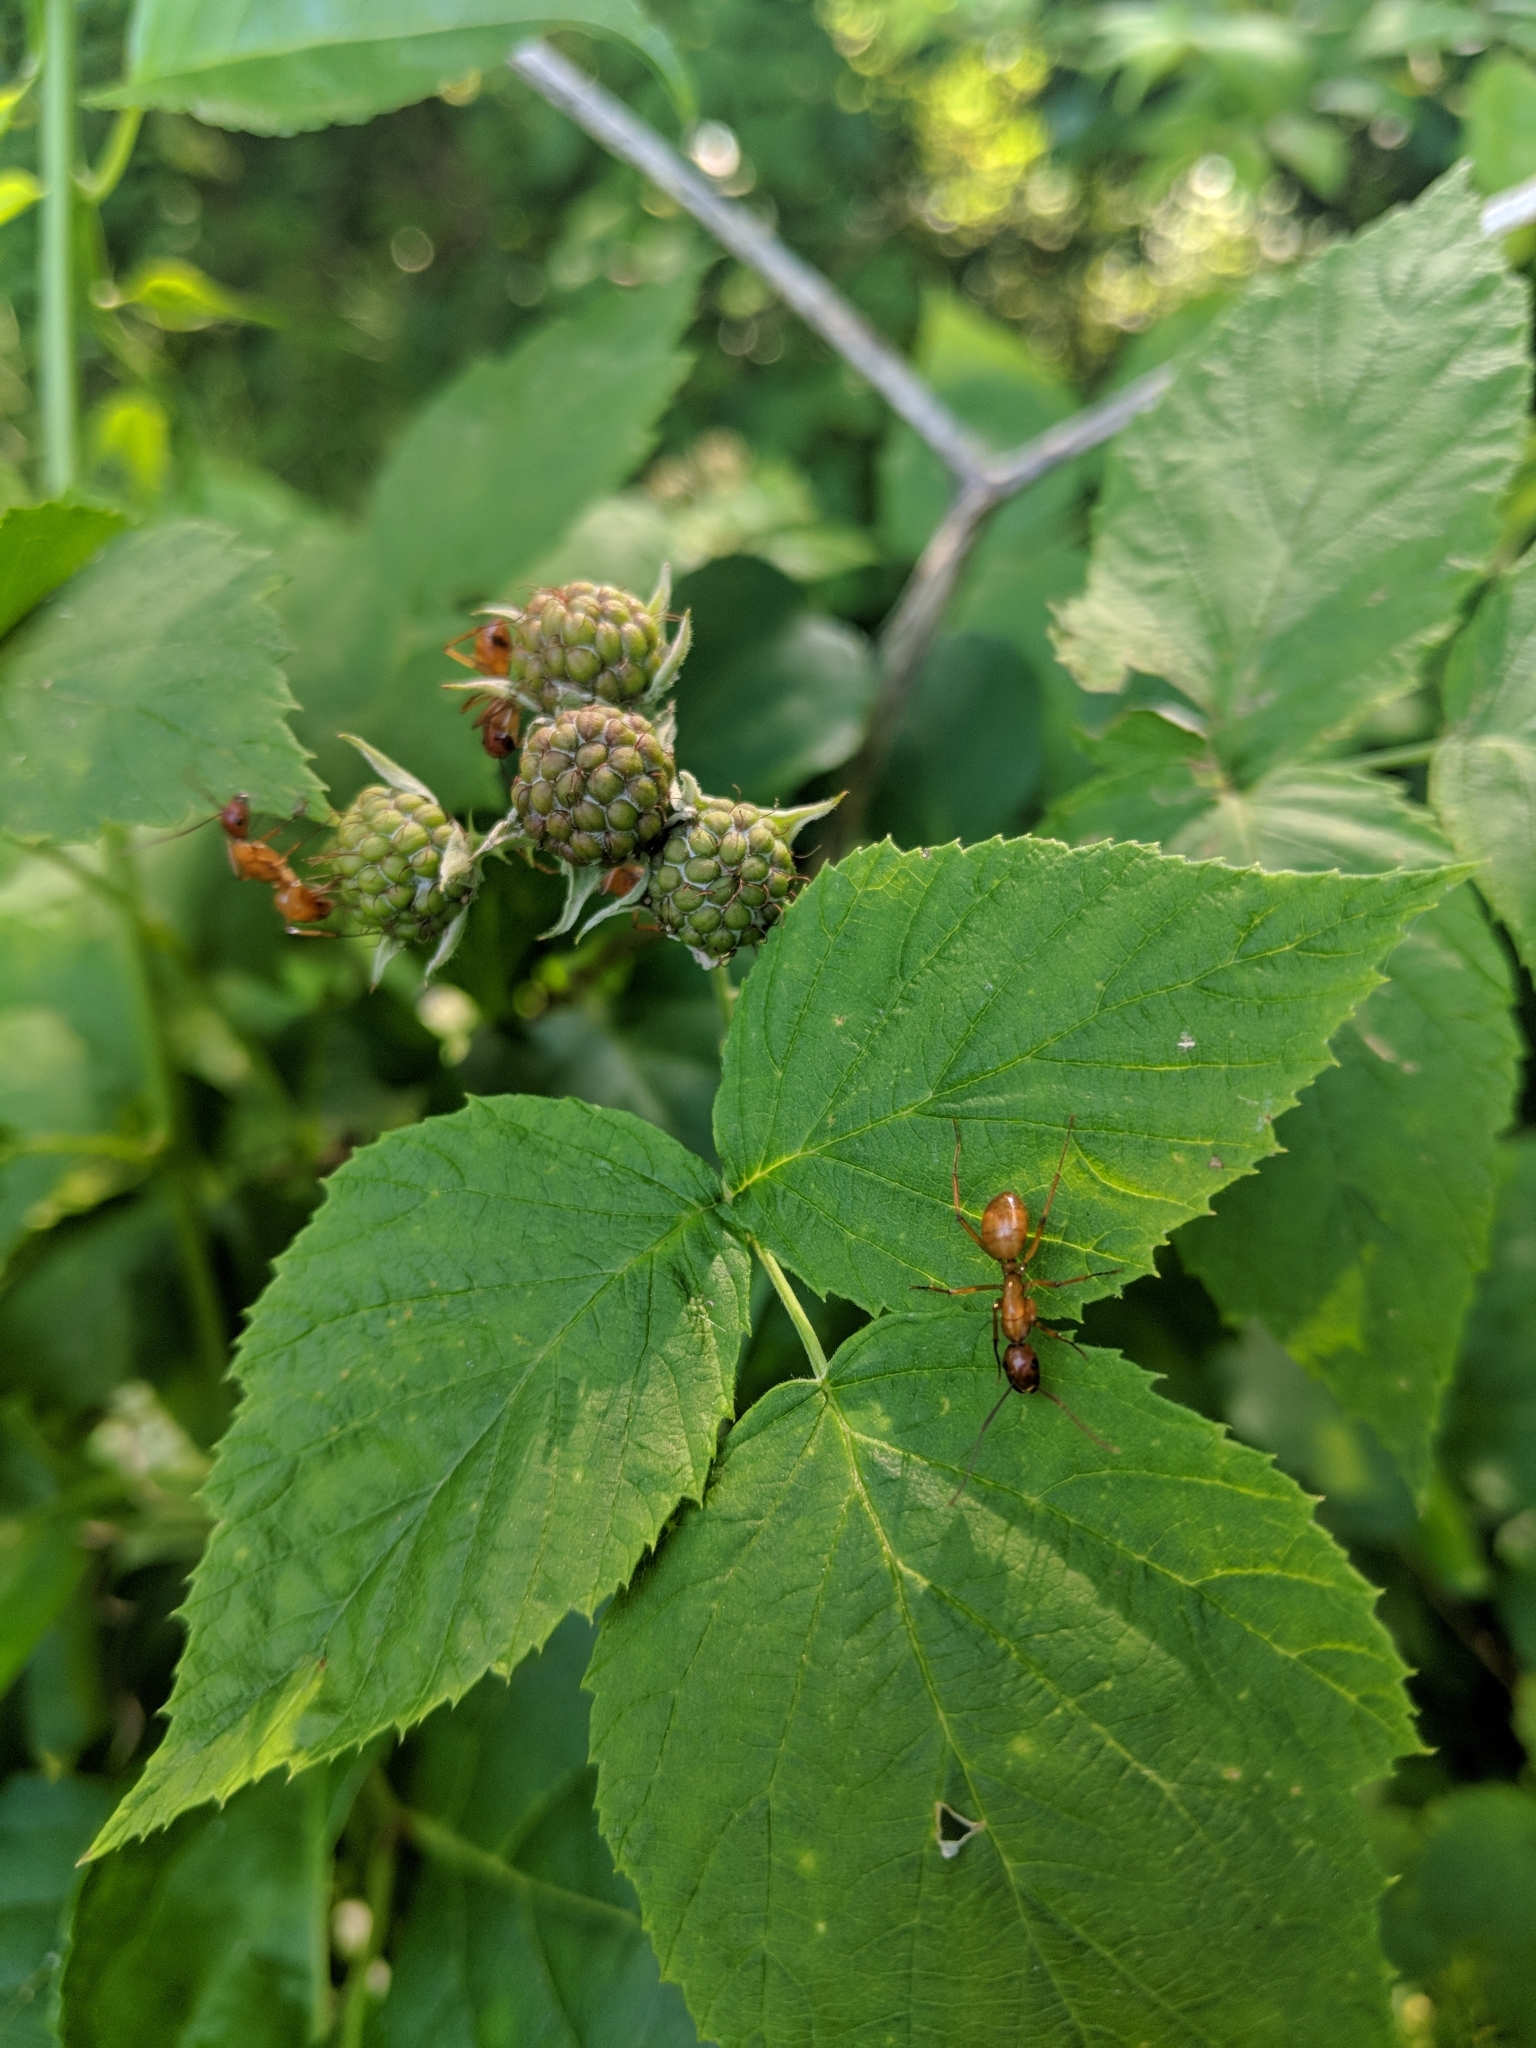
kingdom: Animalia
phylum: Arthropoda
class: Insecta
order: Hymenoptera
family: Formicidae
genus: Camponotus
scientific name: Camponotus castaneus
